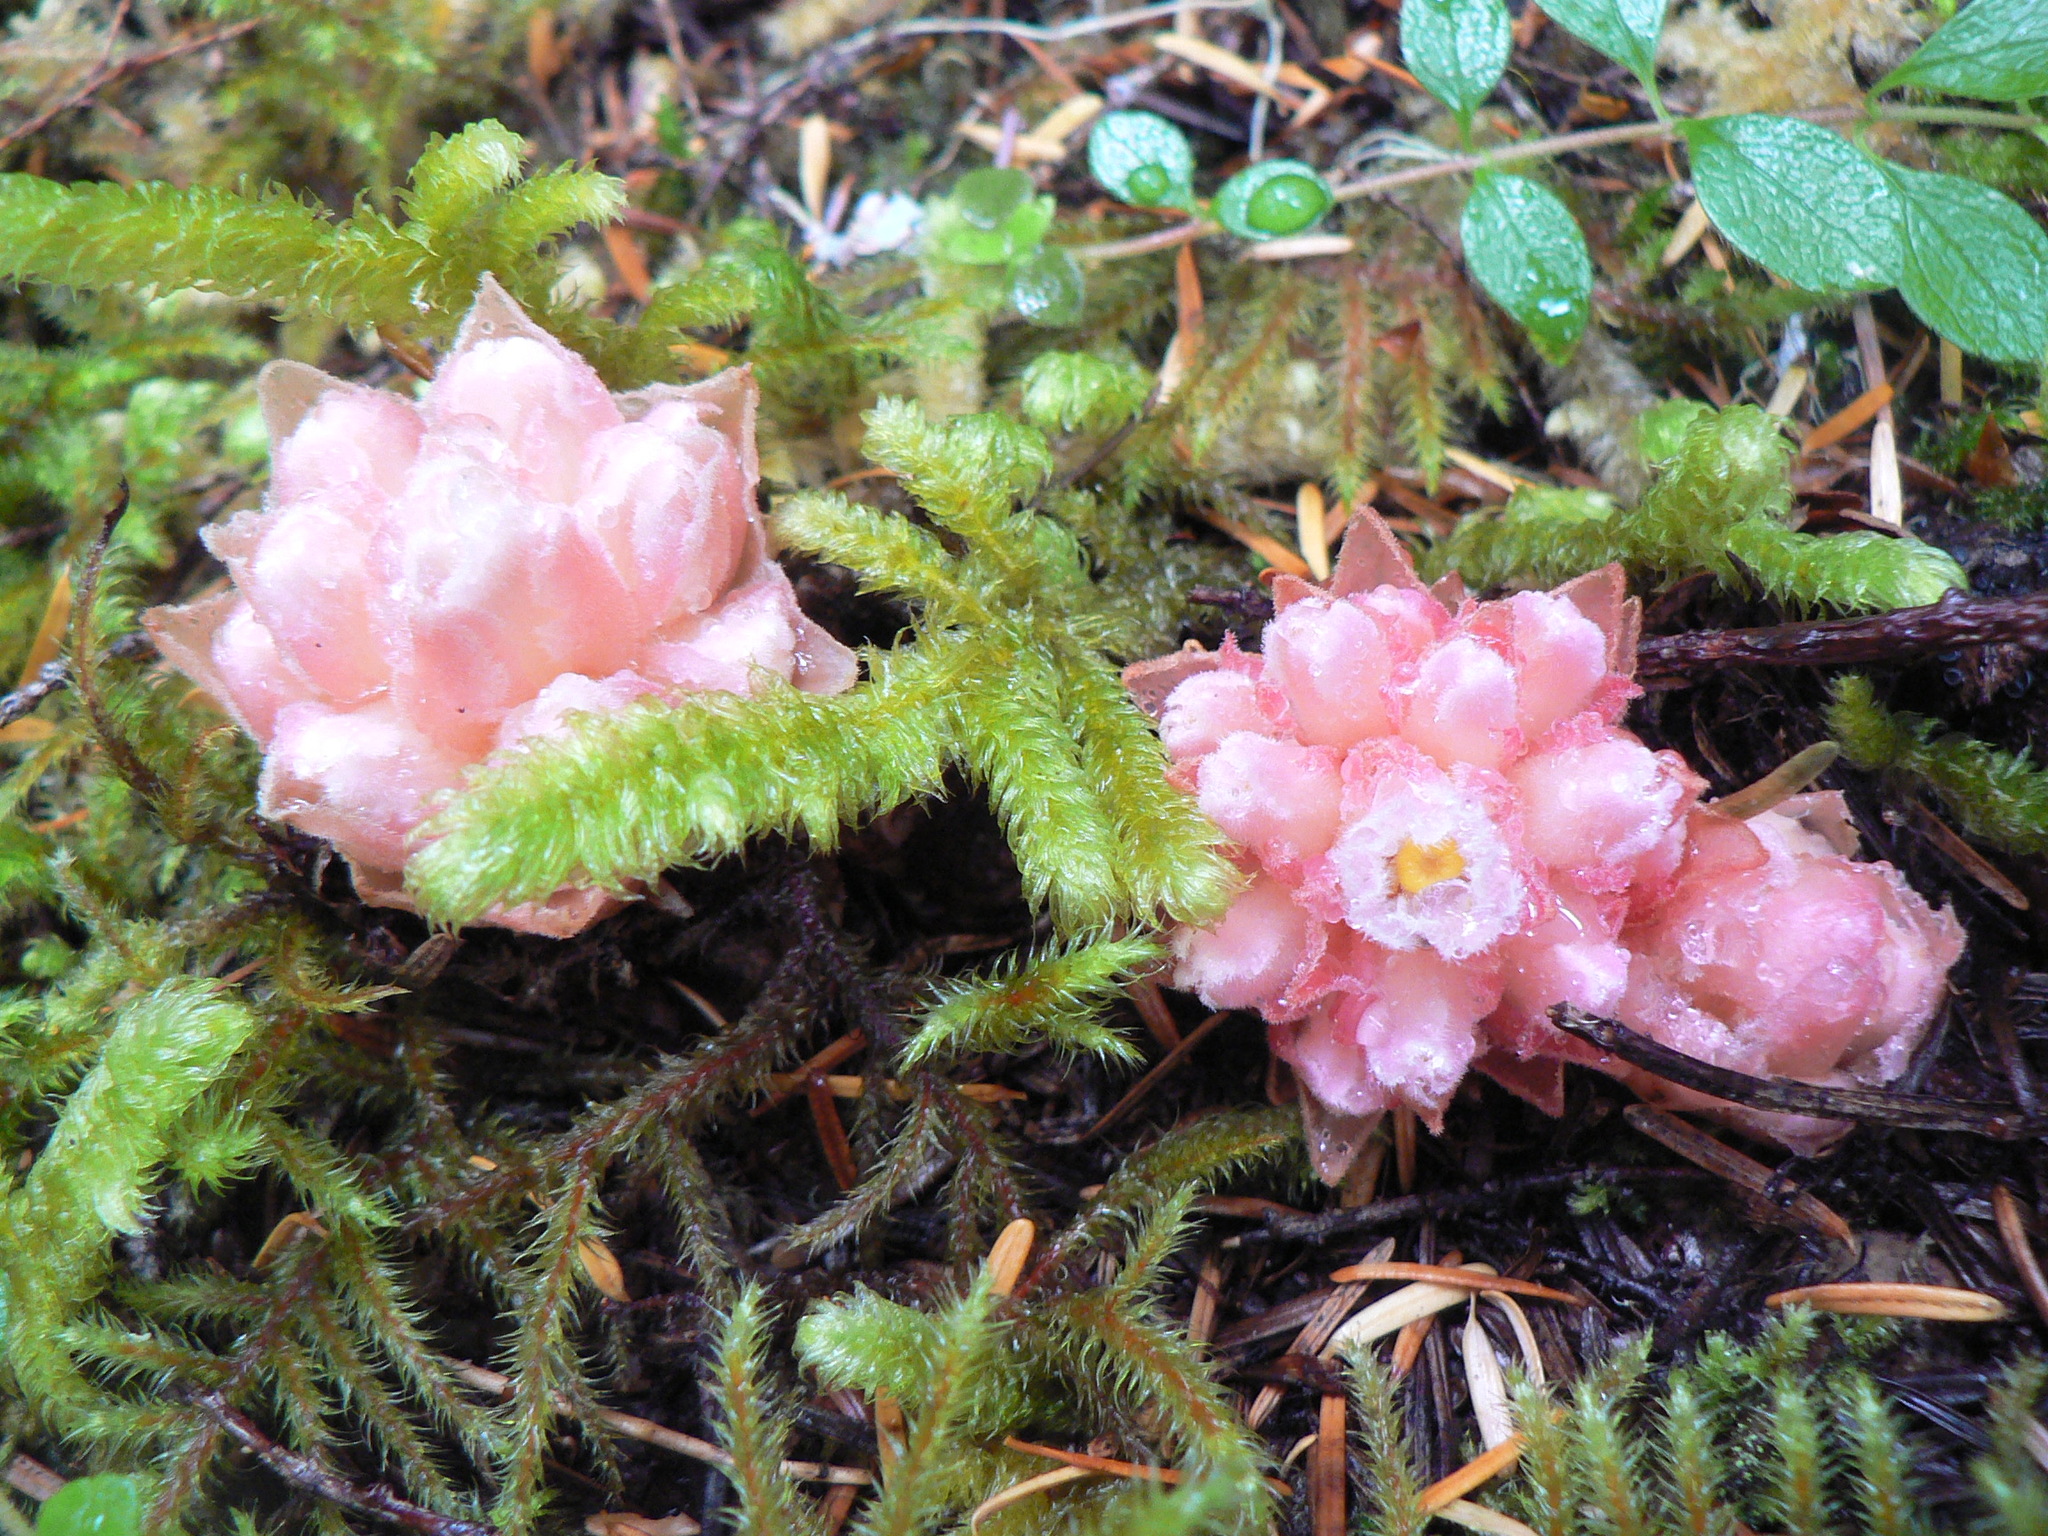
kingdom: Plantae
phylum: Tracheophyta
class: Magnoliopsida
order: Ericales
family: Ericaceae
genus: Hemitomes
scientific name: Hemitomes congestum
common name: Cone plant
